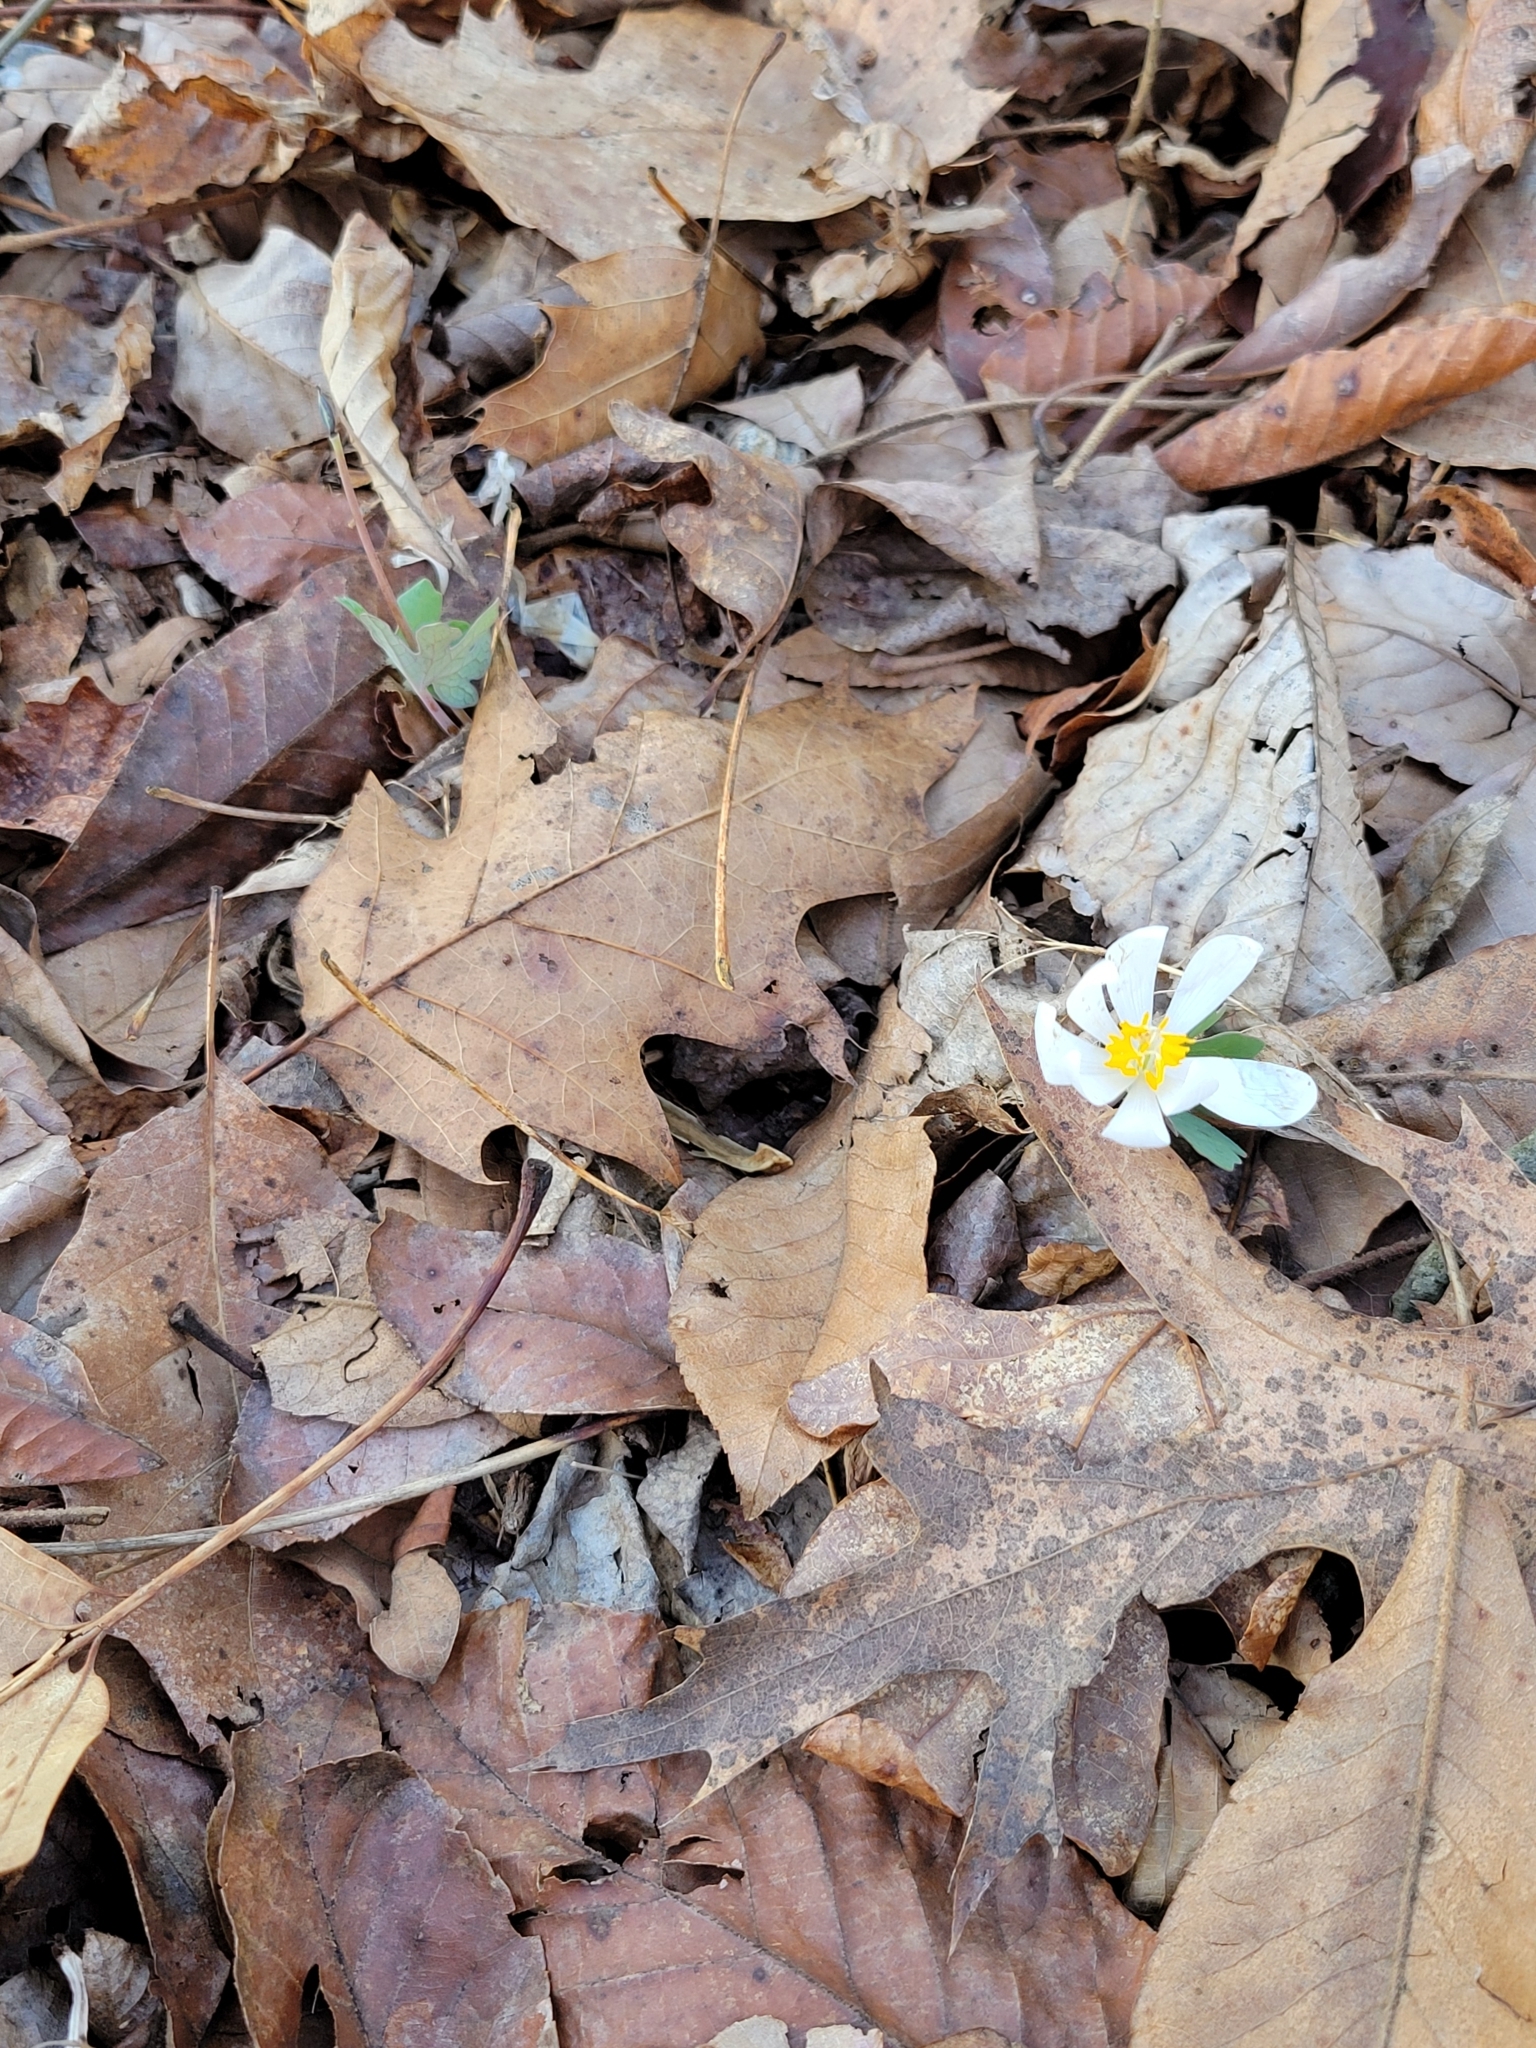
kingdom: Plantae
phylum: Tracheophyta
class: Magnoliopsida
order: Ranunculales
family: Papaveraceae
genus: Sanguinaria
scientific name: Sanguinaria canadensis
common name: Bloodroot
